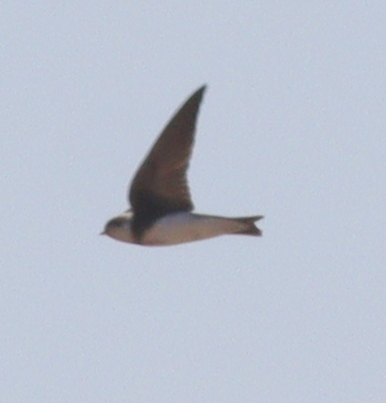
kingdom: Animalia
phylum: Chordata
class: Aves
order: Passeriformes
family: Hirundinidae
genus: Riparia
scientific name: Riparia riparia
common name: Sand martin
